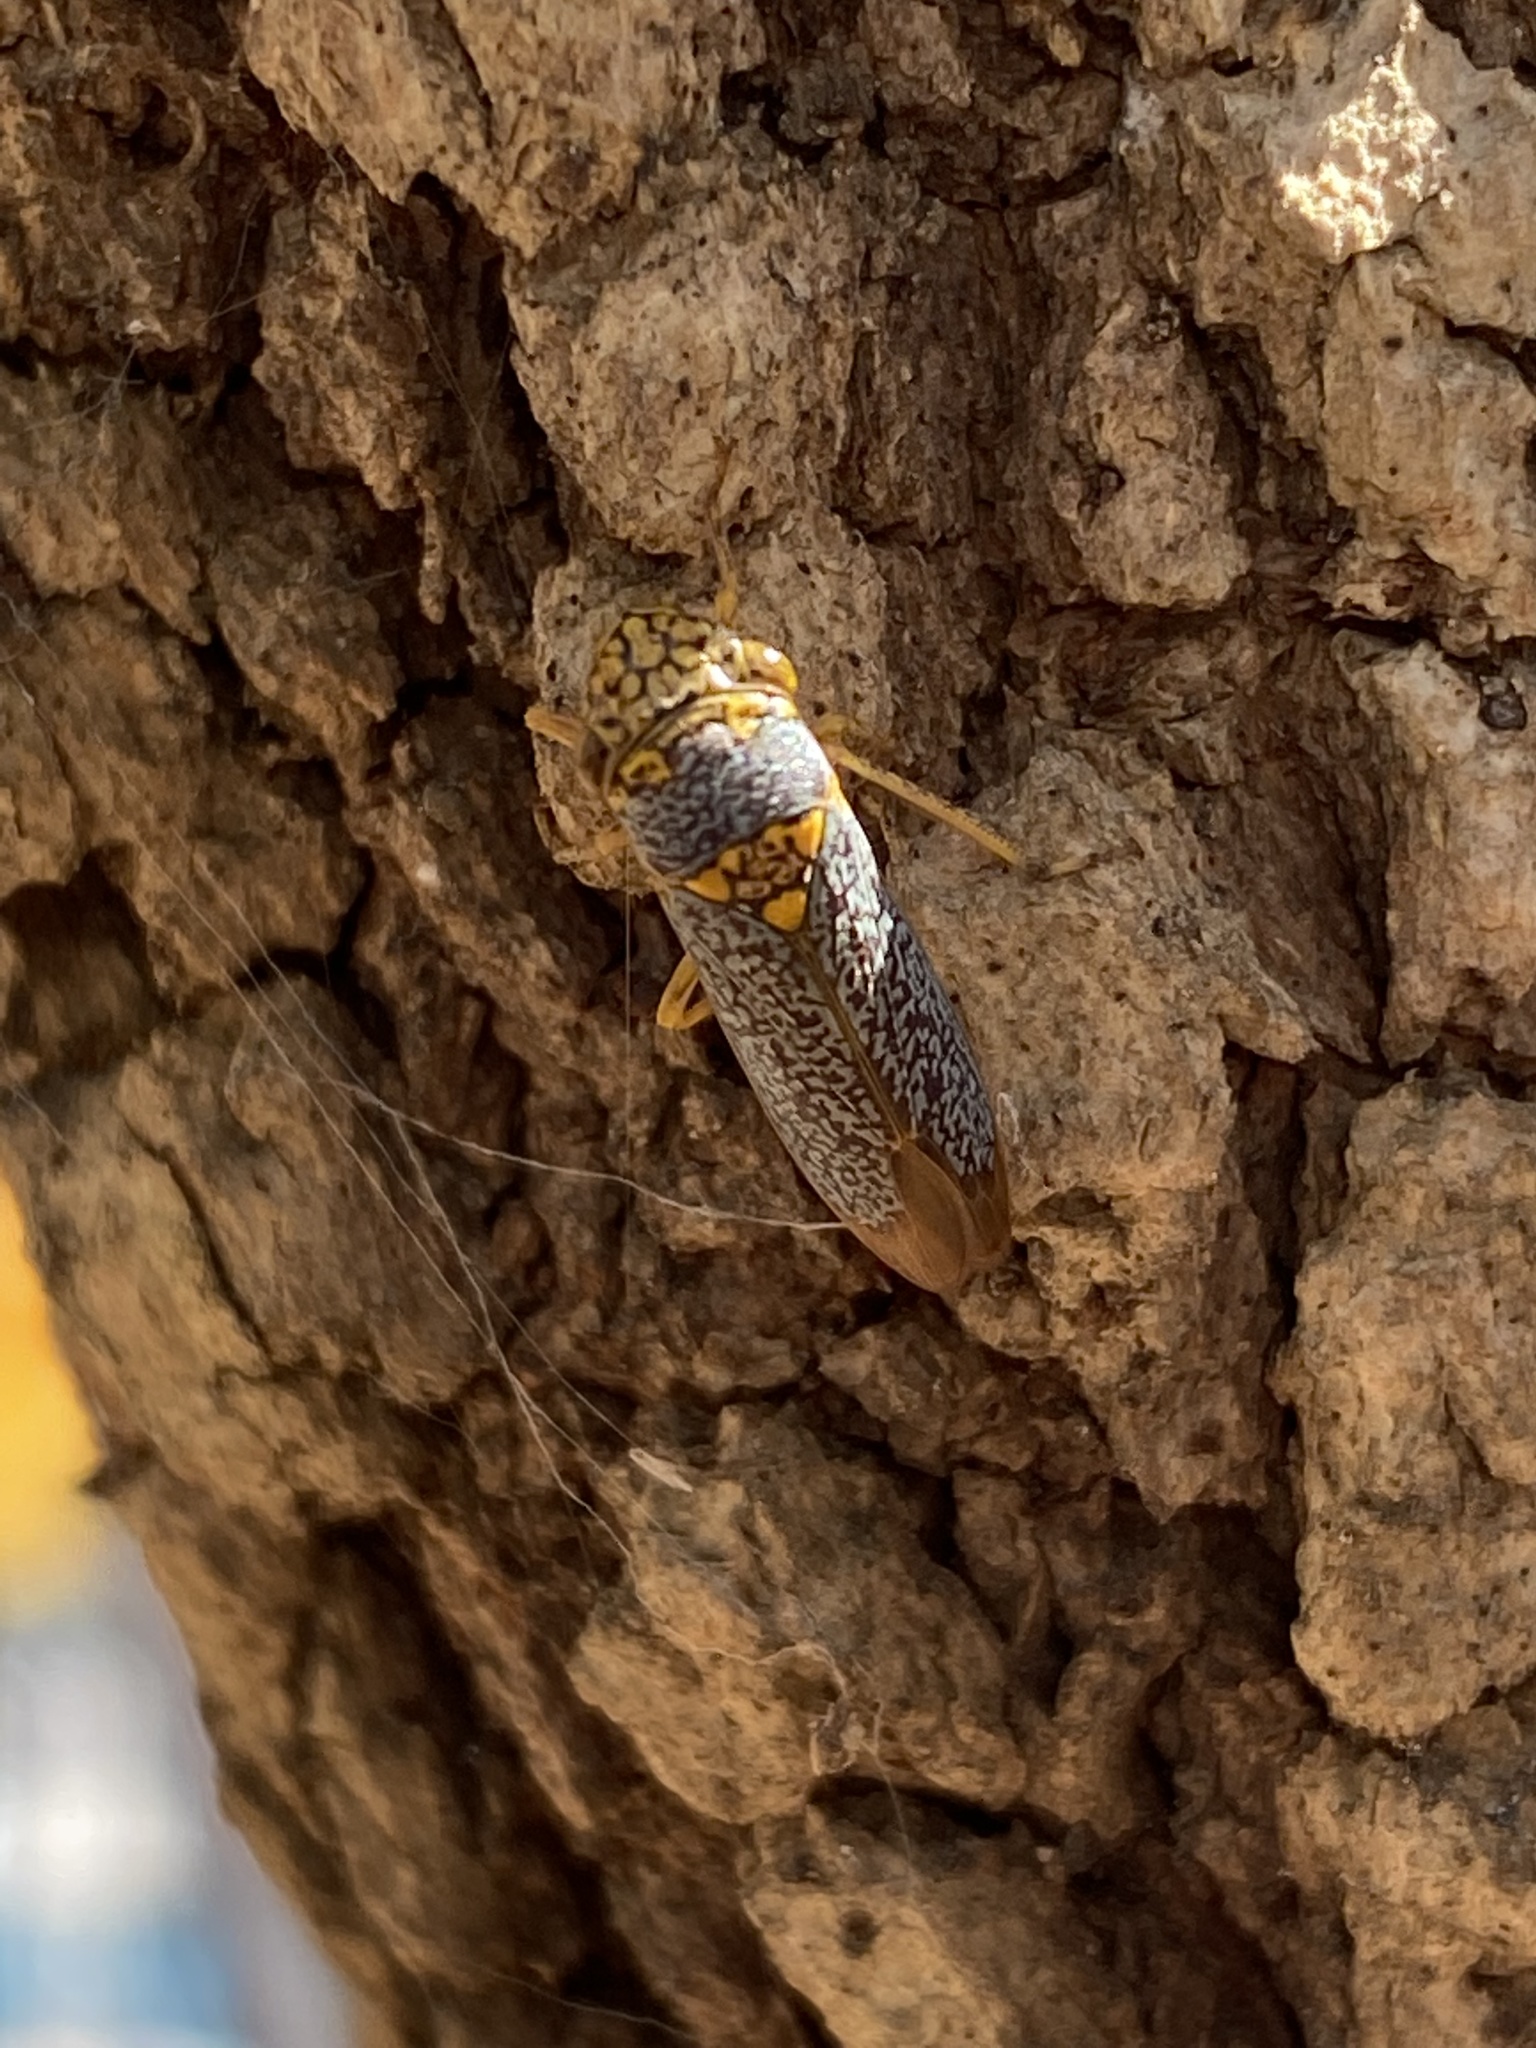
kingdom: Animalia
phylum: Arthropoda
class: Insecta
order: Hemiptera
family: Cicadellidae
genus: Oncometopia
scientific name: Oncometopia orbona
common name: Broad-headed sharpshooter
